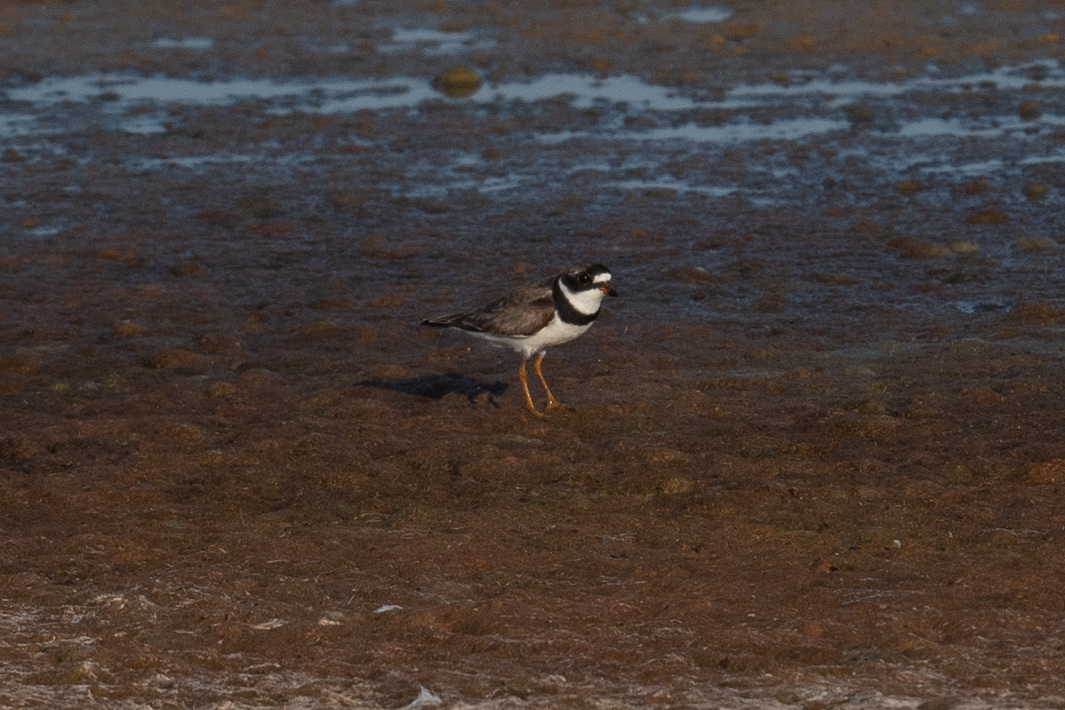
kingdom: Animalia
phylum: Chordata
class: Aves
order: Charadriiformes
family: Charadriidae
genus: Charadrius
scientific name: Charadrius semipalmatus
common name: Semipalmated plover
